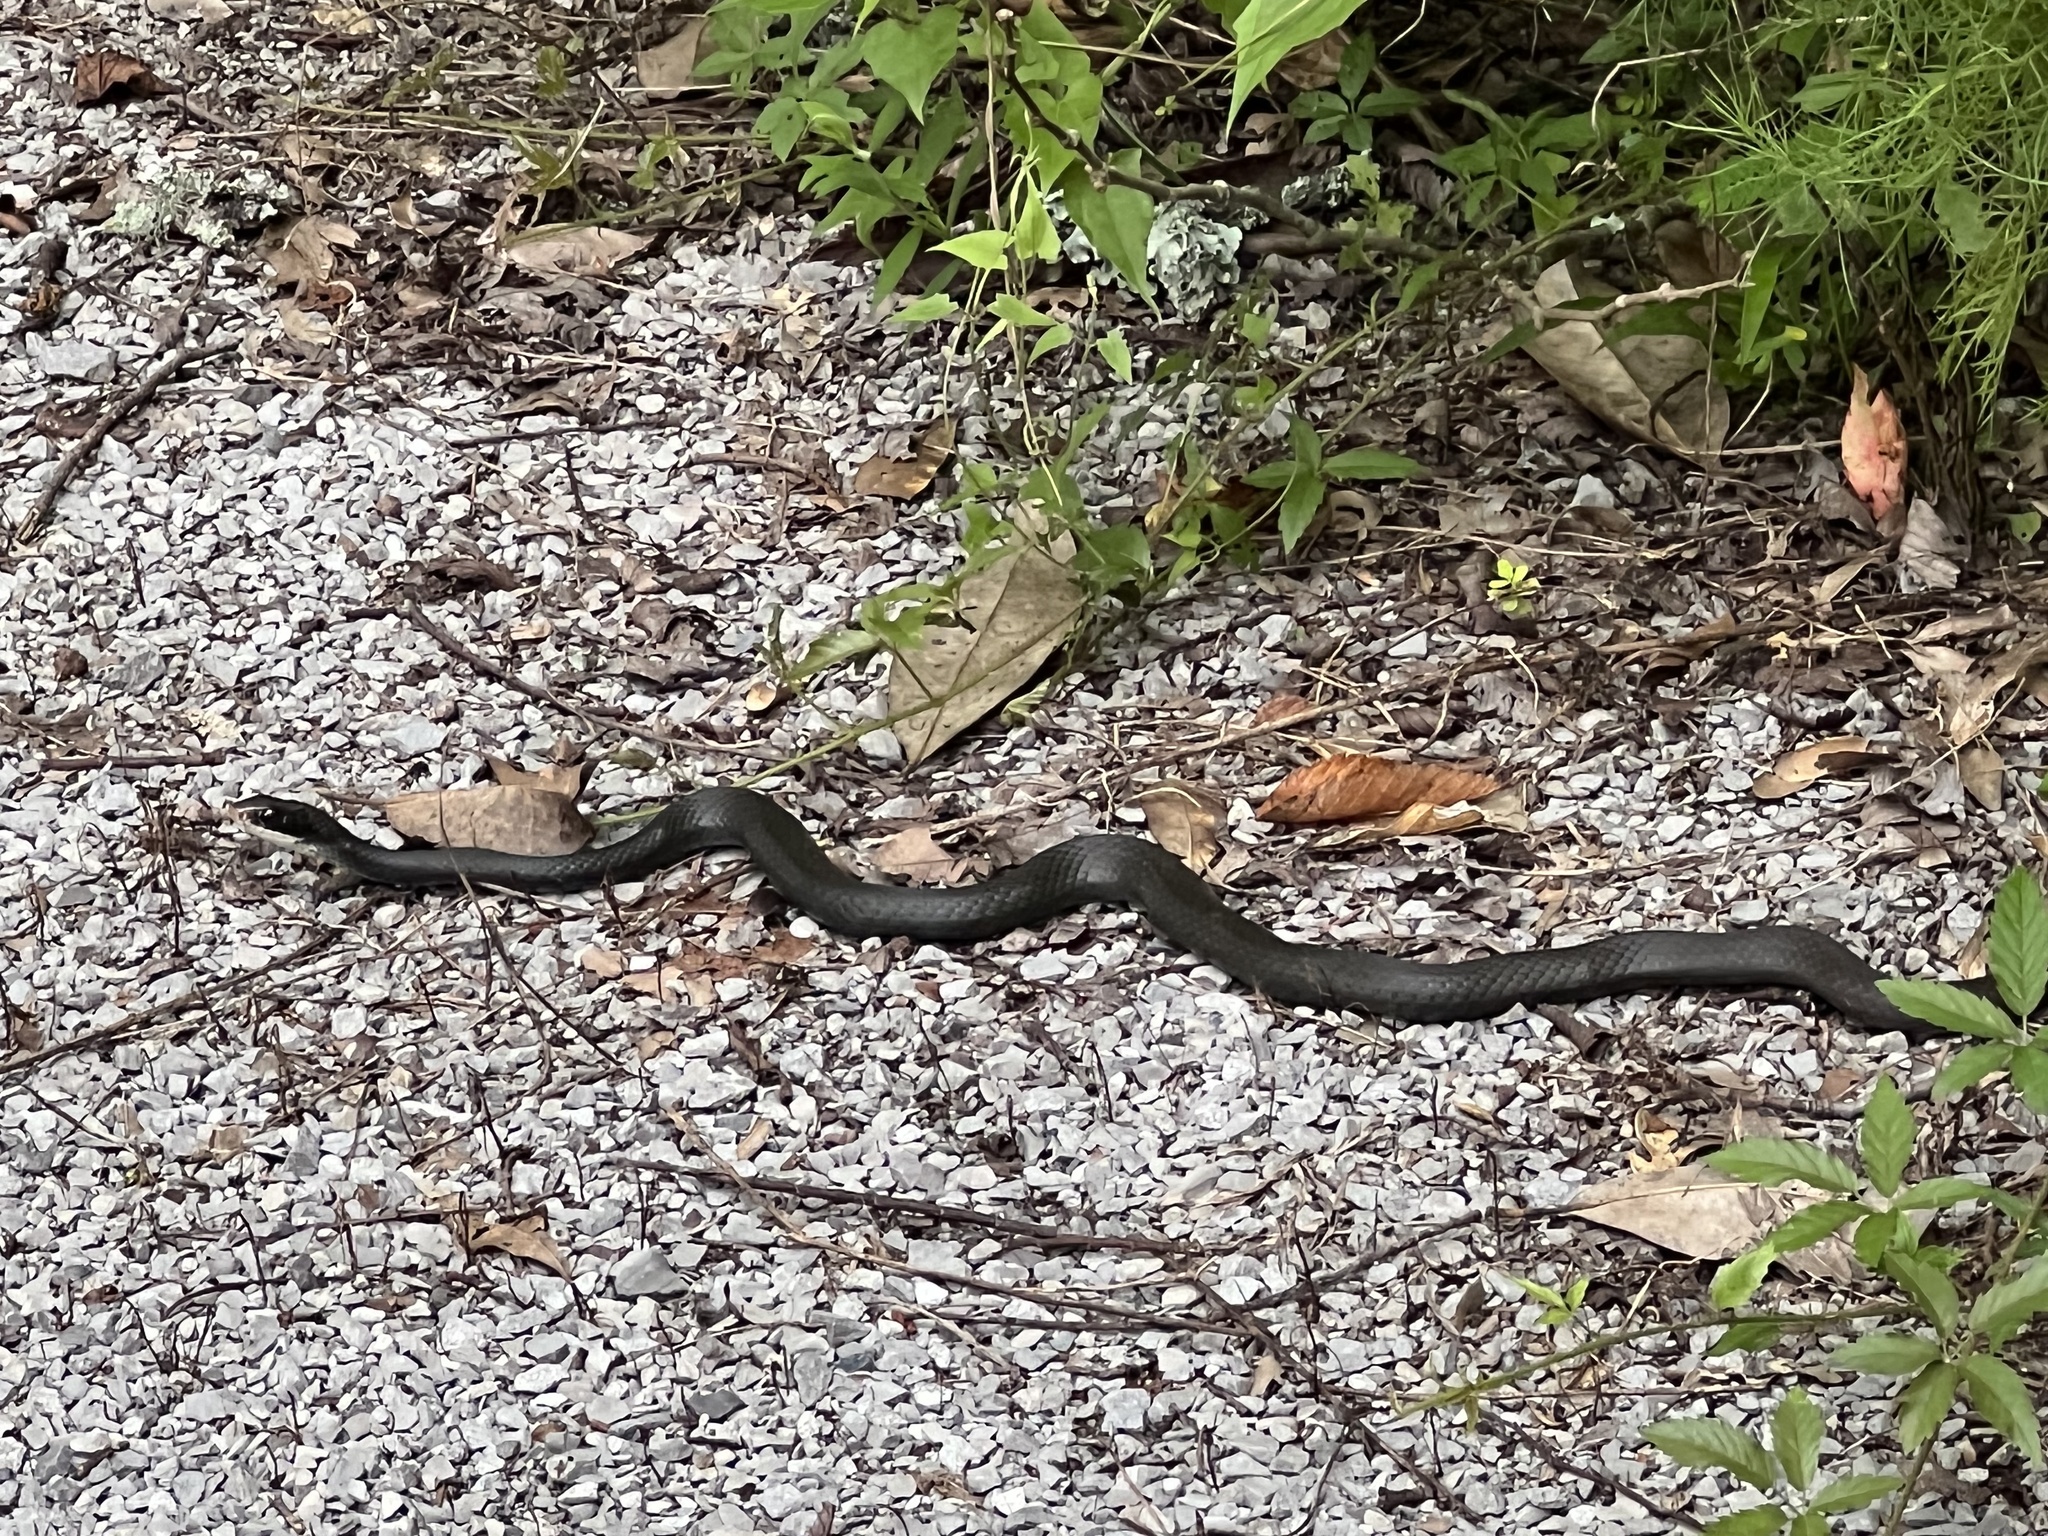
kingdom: Animalia
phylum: Chordata
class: Squamata
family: Colubridae
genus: Coluber
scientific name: Coluber constrictor
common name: Eastern racer
